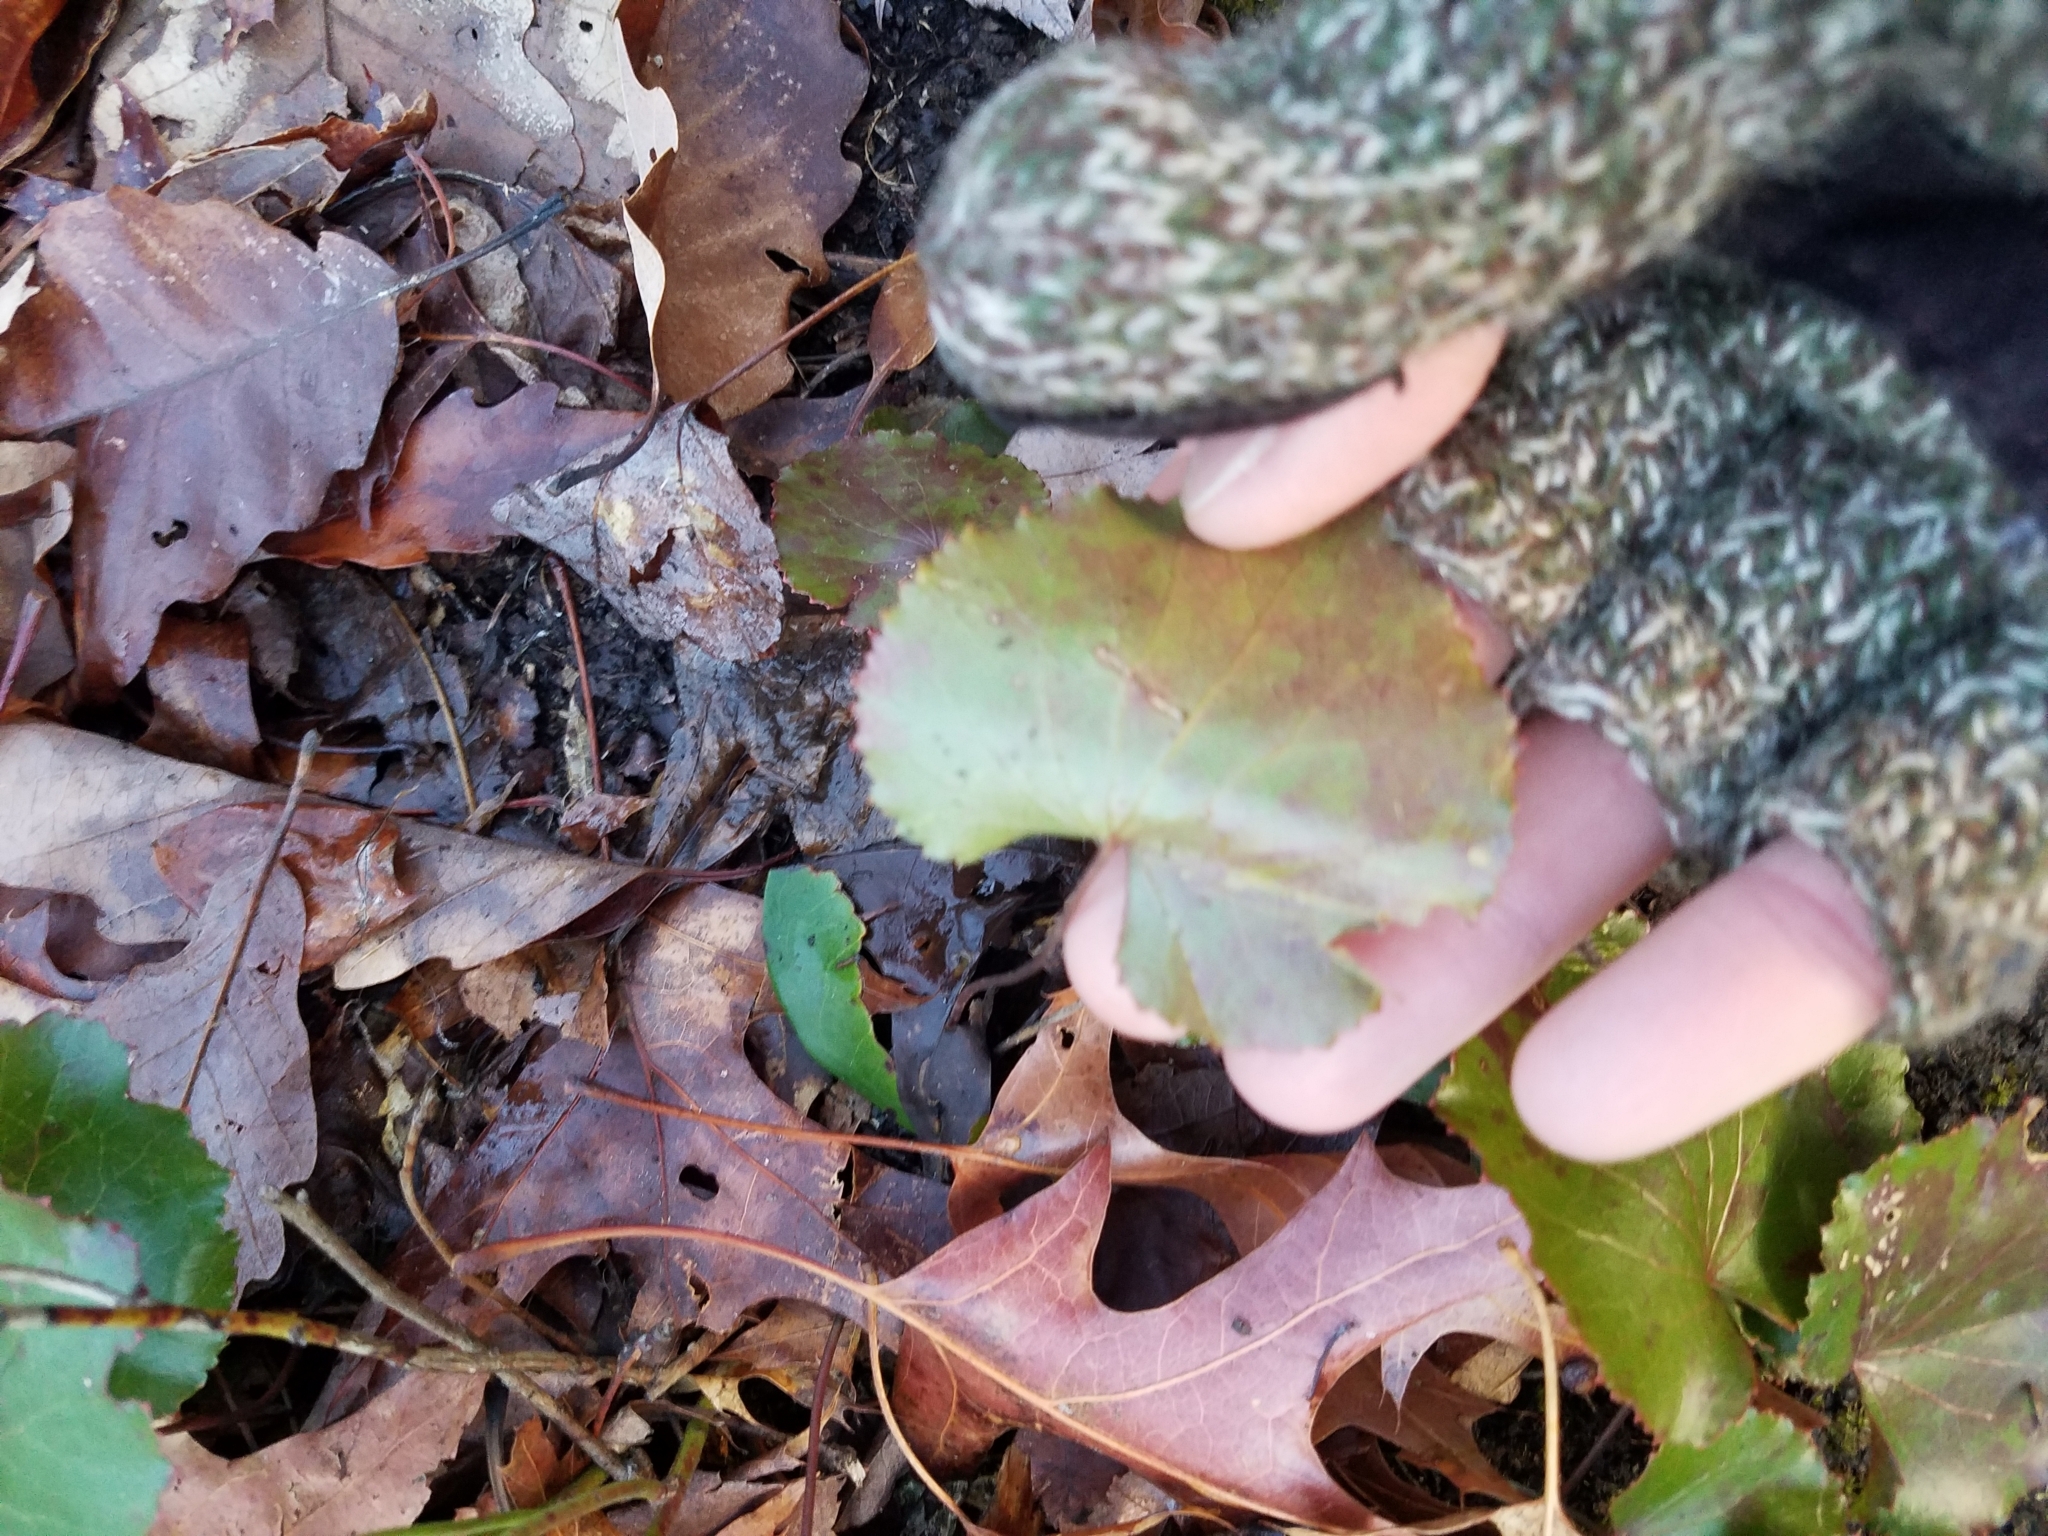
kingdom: Plantae
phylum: Tracheophyta
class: Magnoliopsida
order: Ericales
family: Diapensiaceae
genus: Galax
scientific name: Galax urceolata
